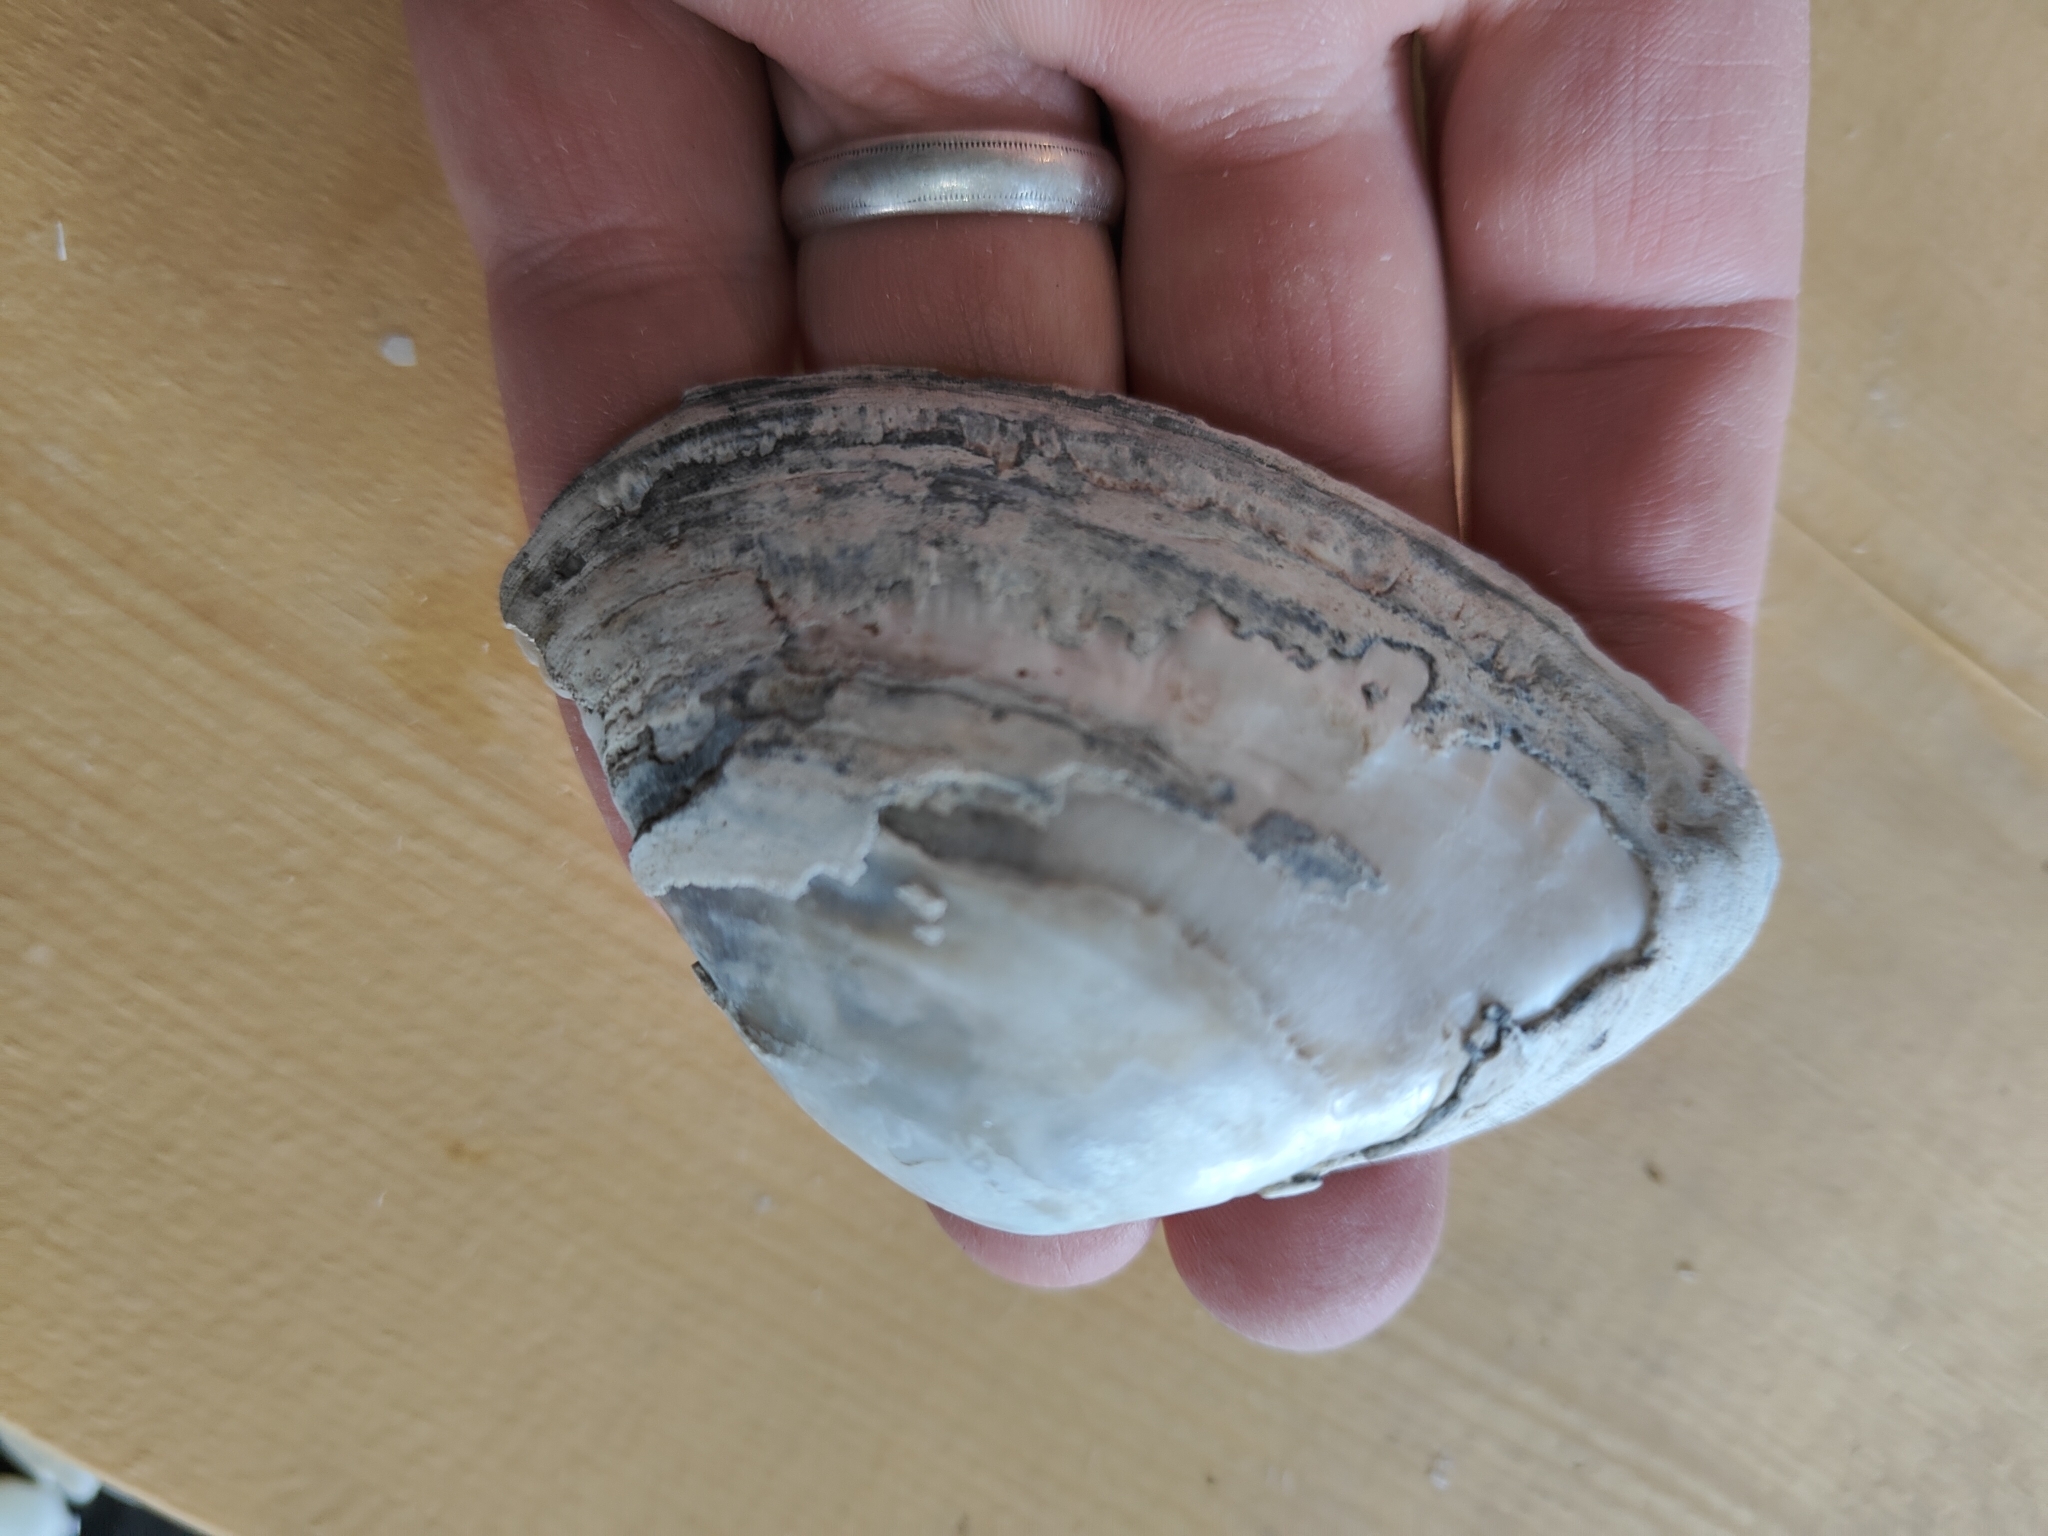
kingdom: Animalia
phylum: Mollusca
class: Bivalvia
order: Unionida
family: Unionidae
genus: Alasmidonta
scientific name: Alasmidonta marginata
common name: Elktoe
